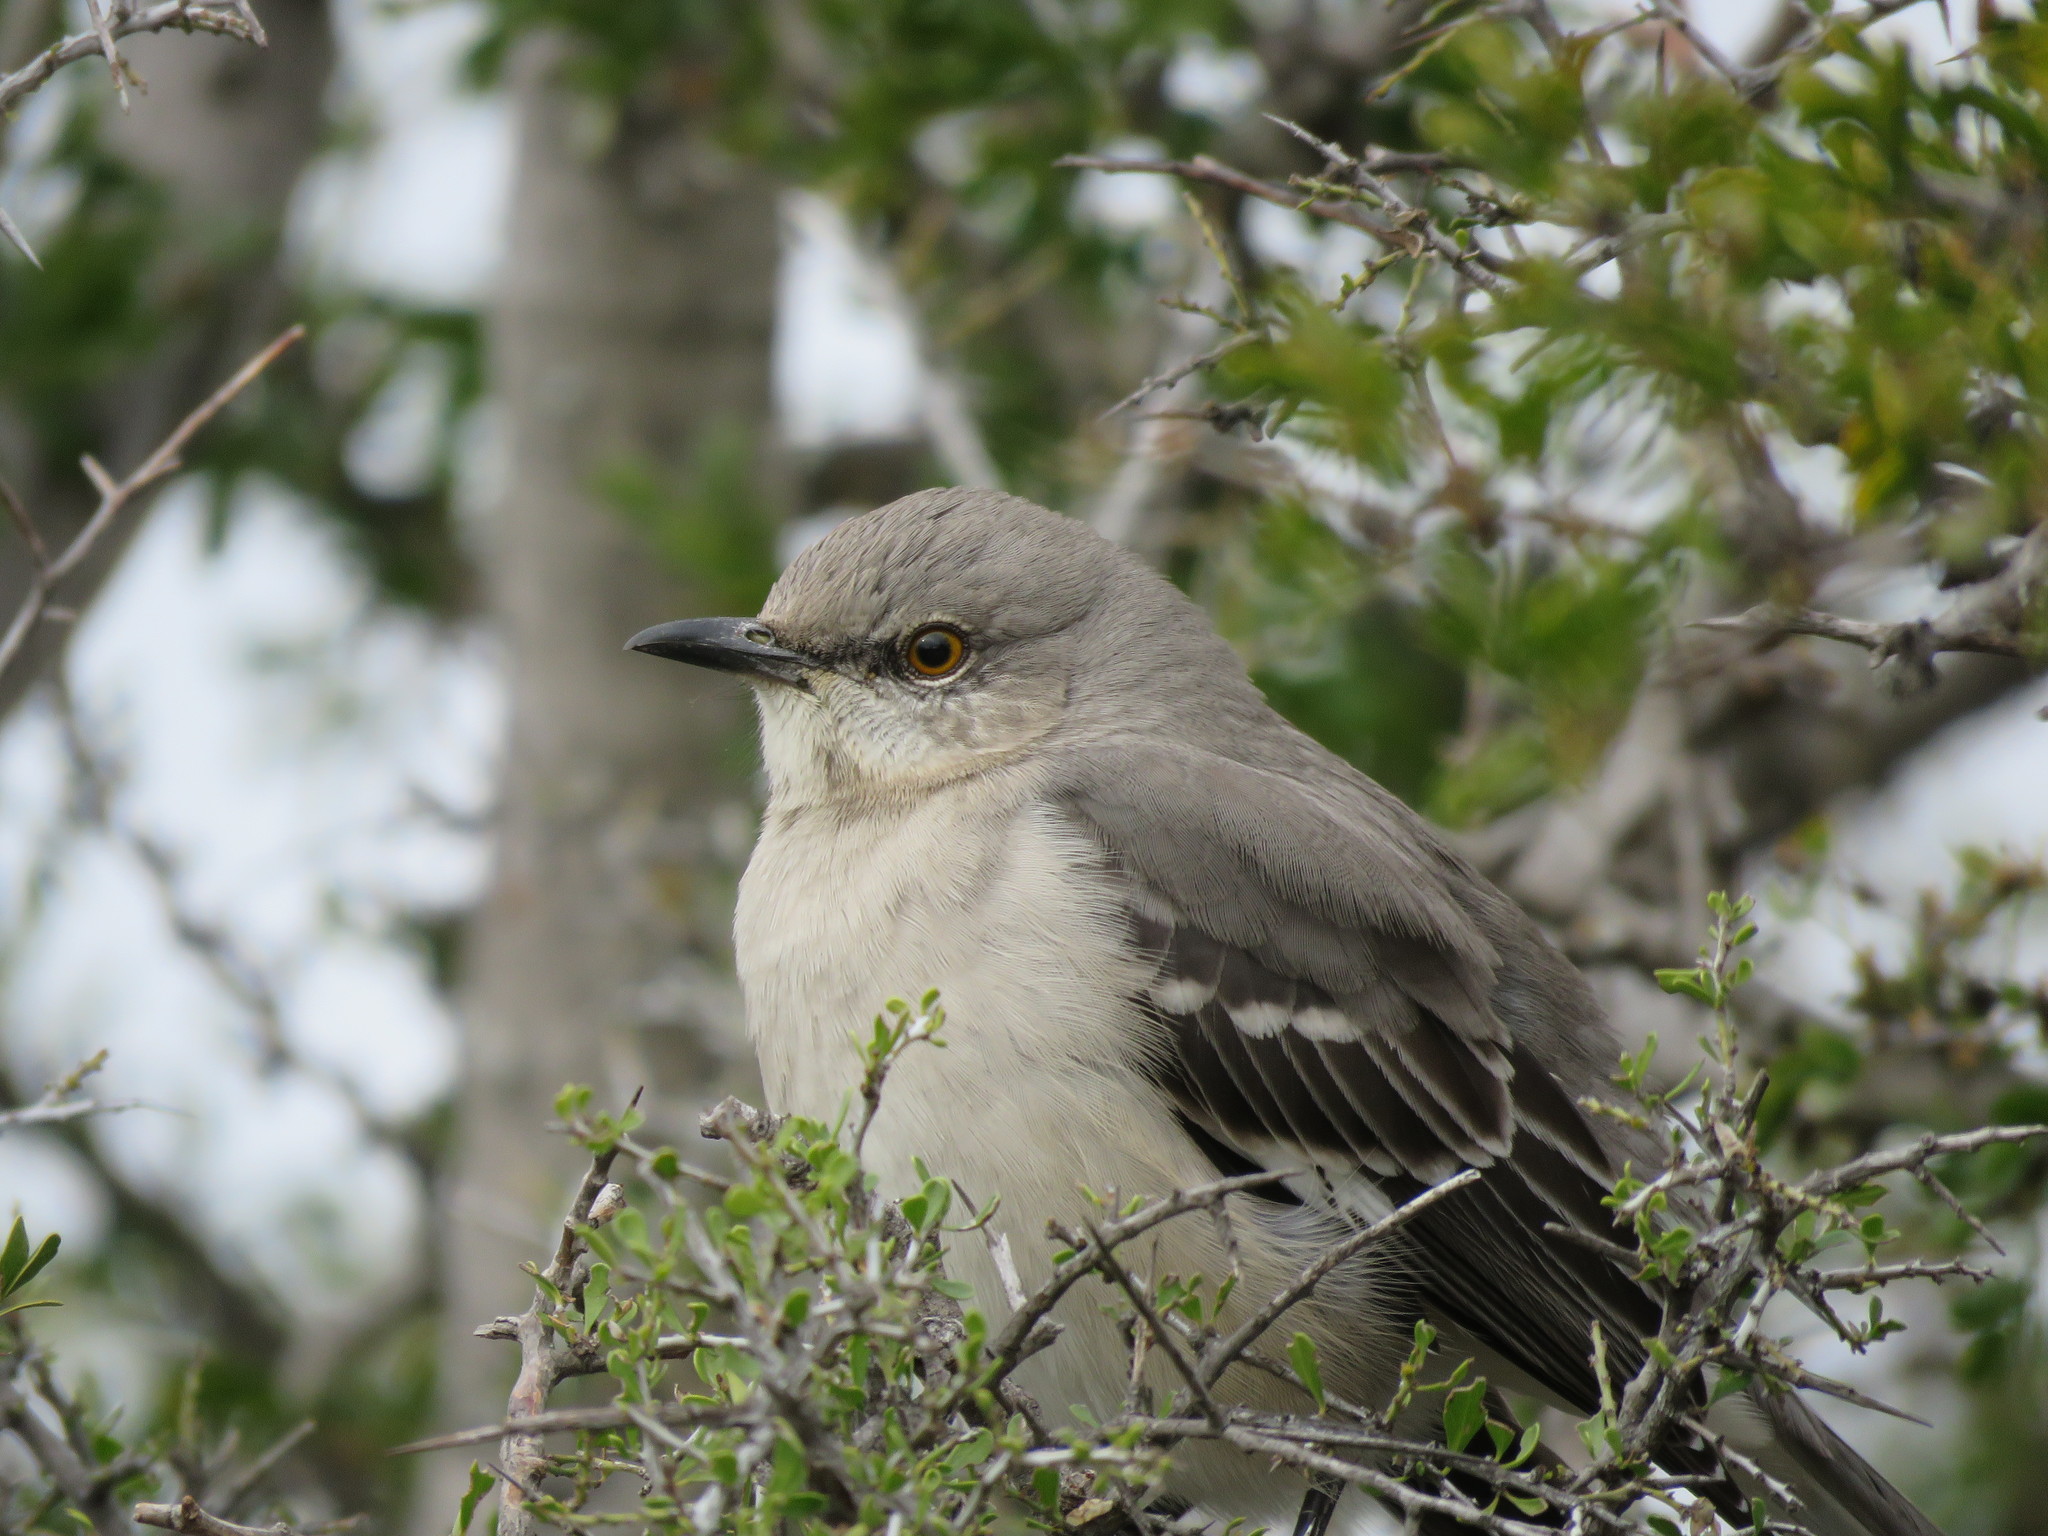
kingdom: Animalia
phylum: Chordata
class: Aves
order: Passeriformes
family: Mimidae
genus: Mimus
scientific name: Mimus polyglottos
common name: Northern mockingbird
